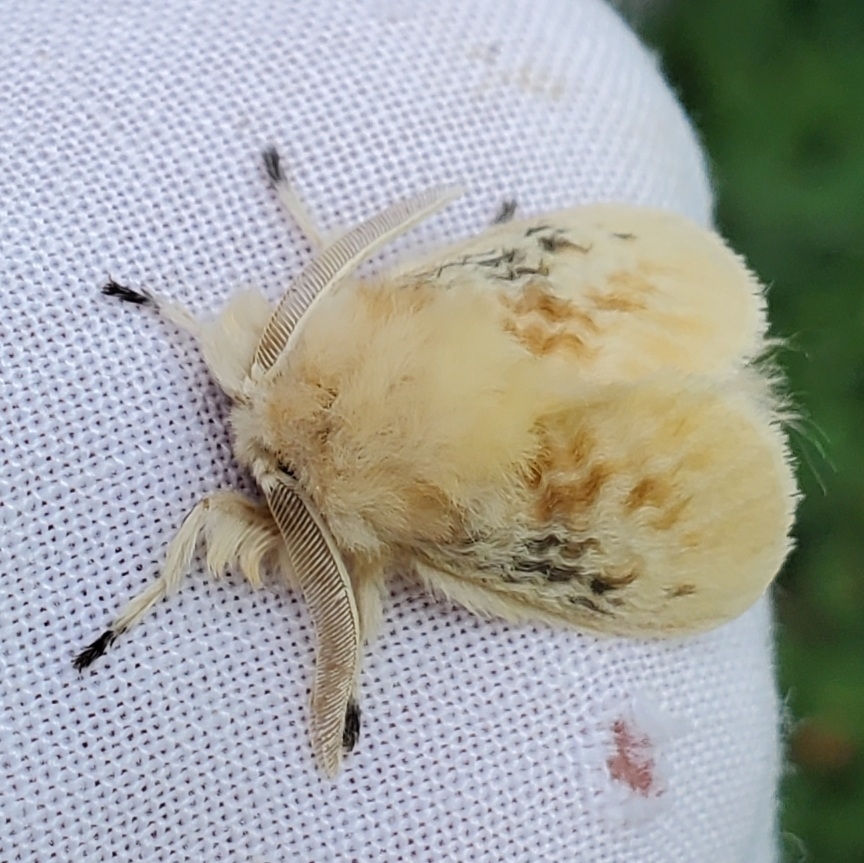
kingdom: Animalia
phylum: Arthropoda
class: Insecta
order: Lepidoptera
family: Megalopygidae
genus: Megalopyge
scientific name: Megalopyge crispata
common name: Black-waved flannel moth
